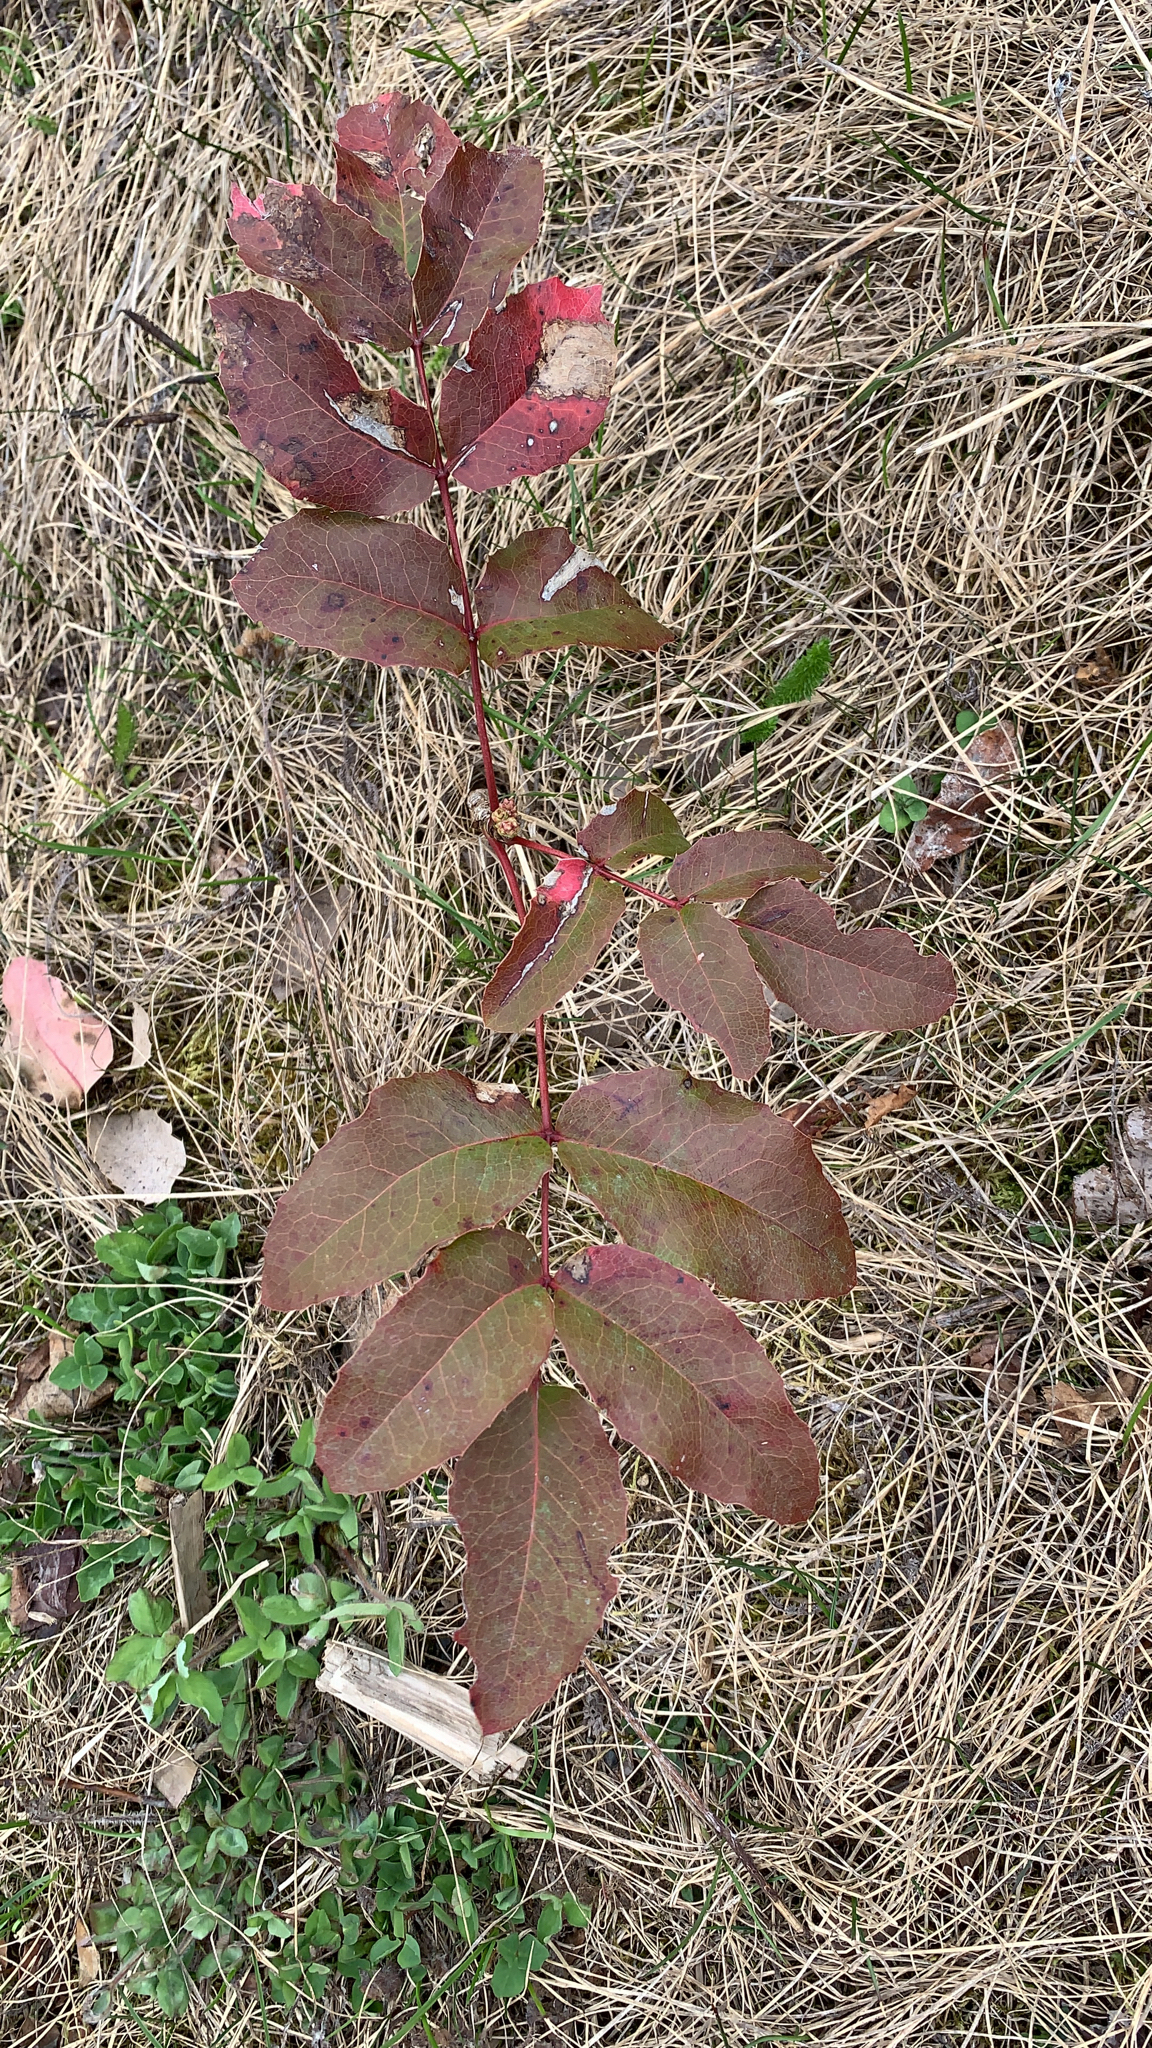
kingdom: Plantae
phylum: Tracheophyta
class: Magnoliopsida
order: Ranunculales
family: Berberidaceae
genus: Mahonia
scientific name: Mahonia aquifolium
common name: Oregon-grape
